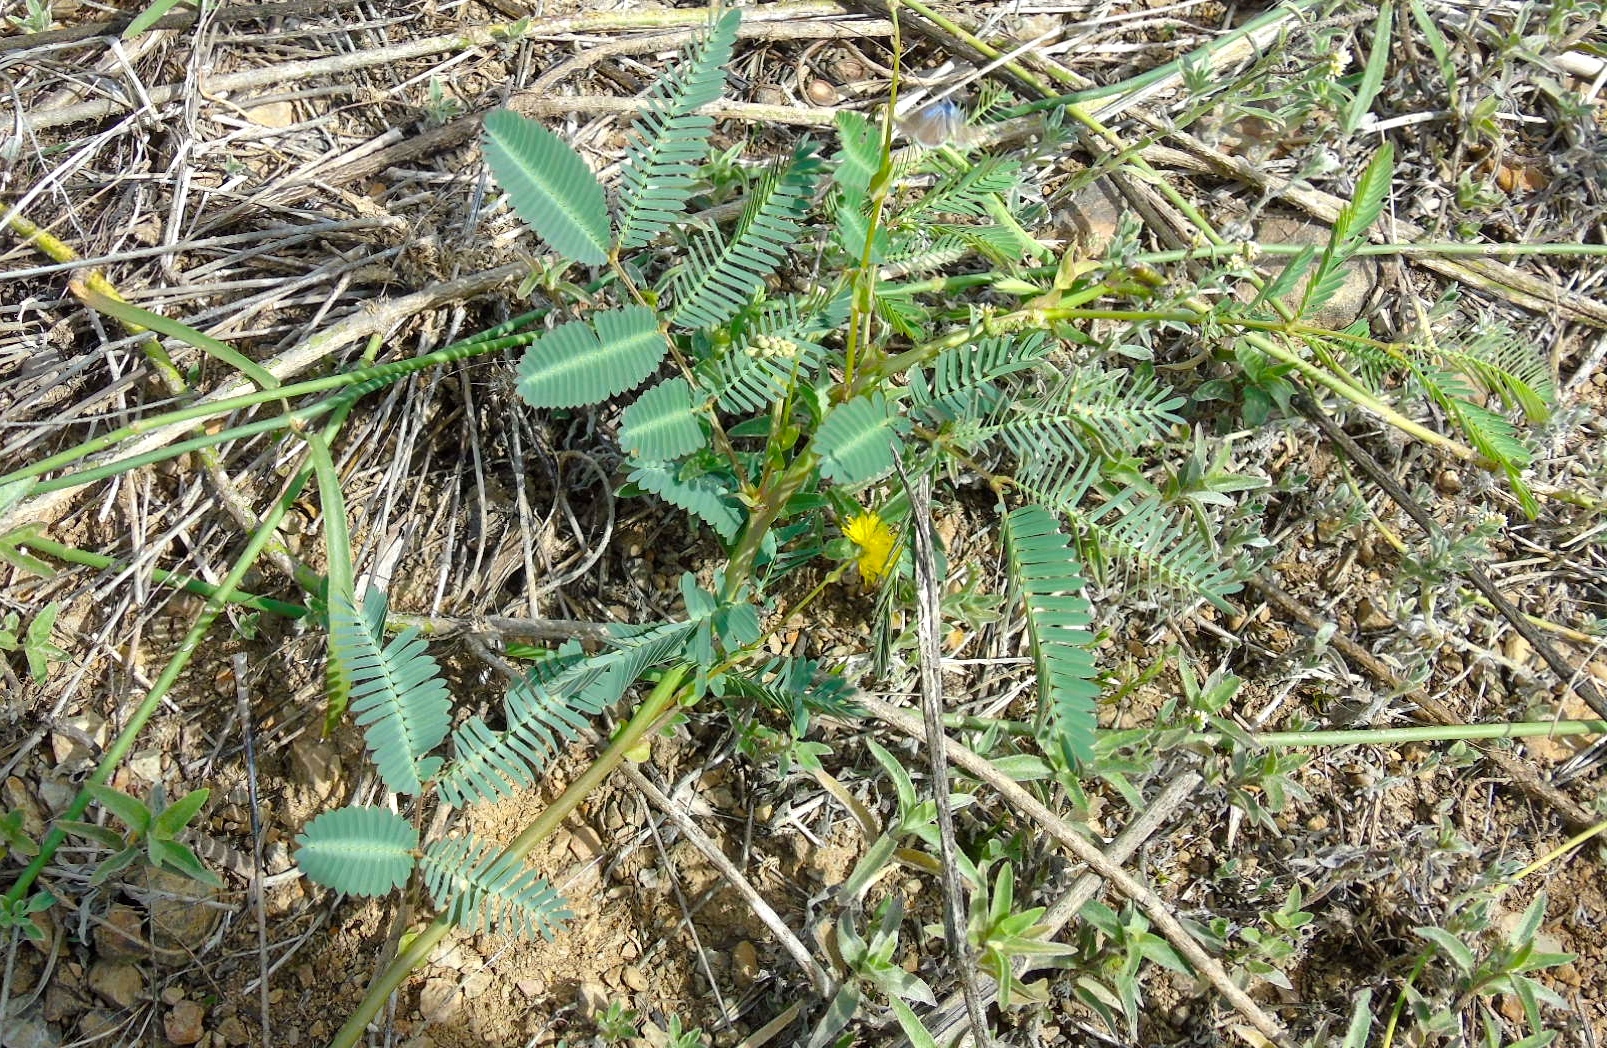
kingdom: Plantae
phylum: Tracheophyta
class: Magnoliopsida
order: Fabales
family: Fabaceae
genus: Neptunia
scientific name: Neptunia
